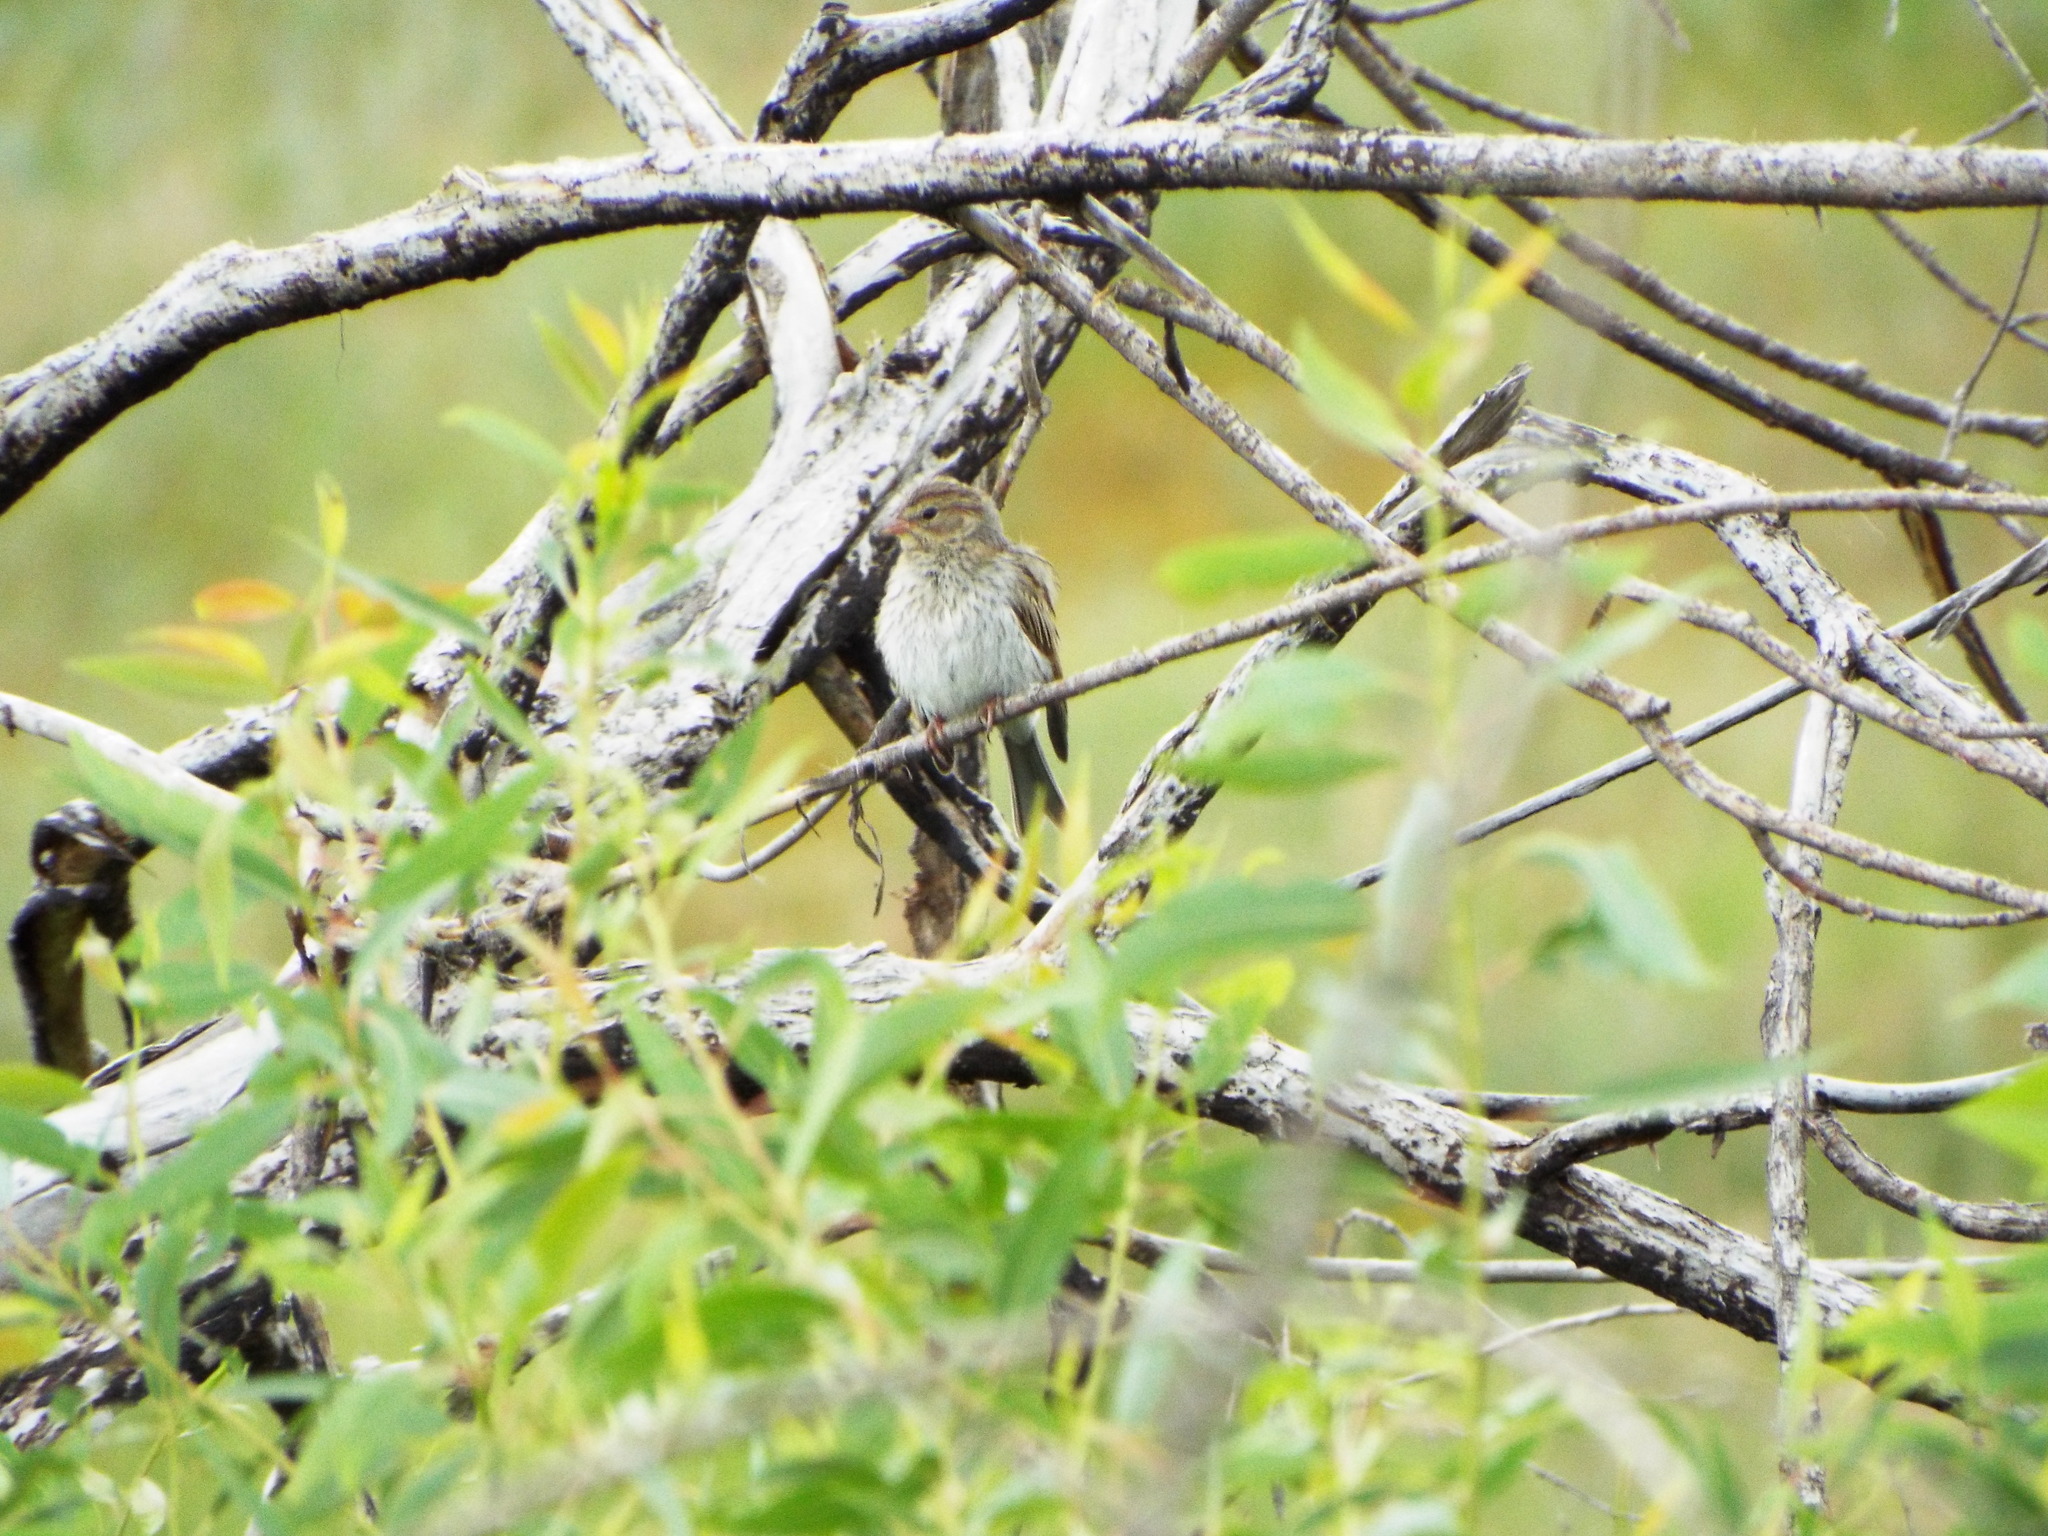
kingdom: Animalia
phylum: Chordata
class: Aves
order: Passeriformes
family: Passerellidae
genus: Spizella
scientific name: Spizella passerina
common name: Chipping sparrow
